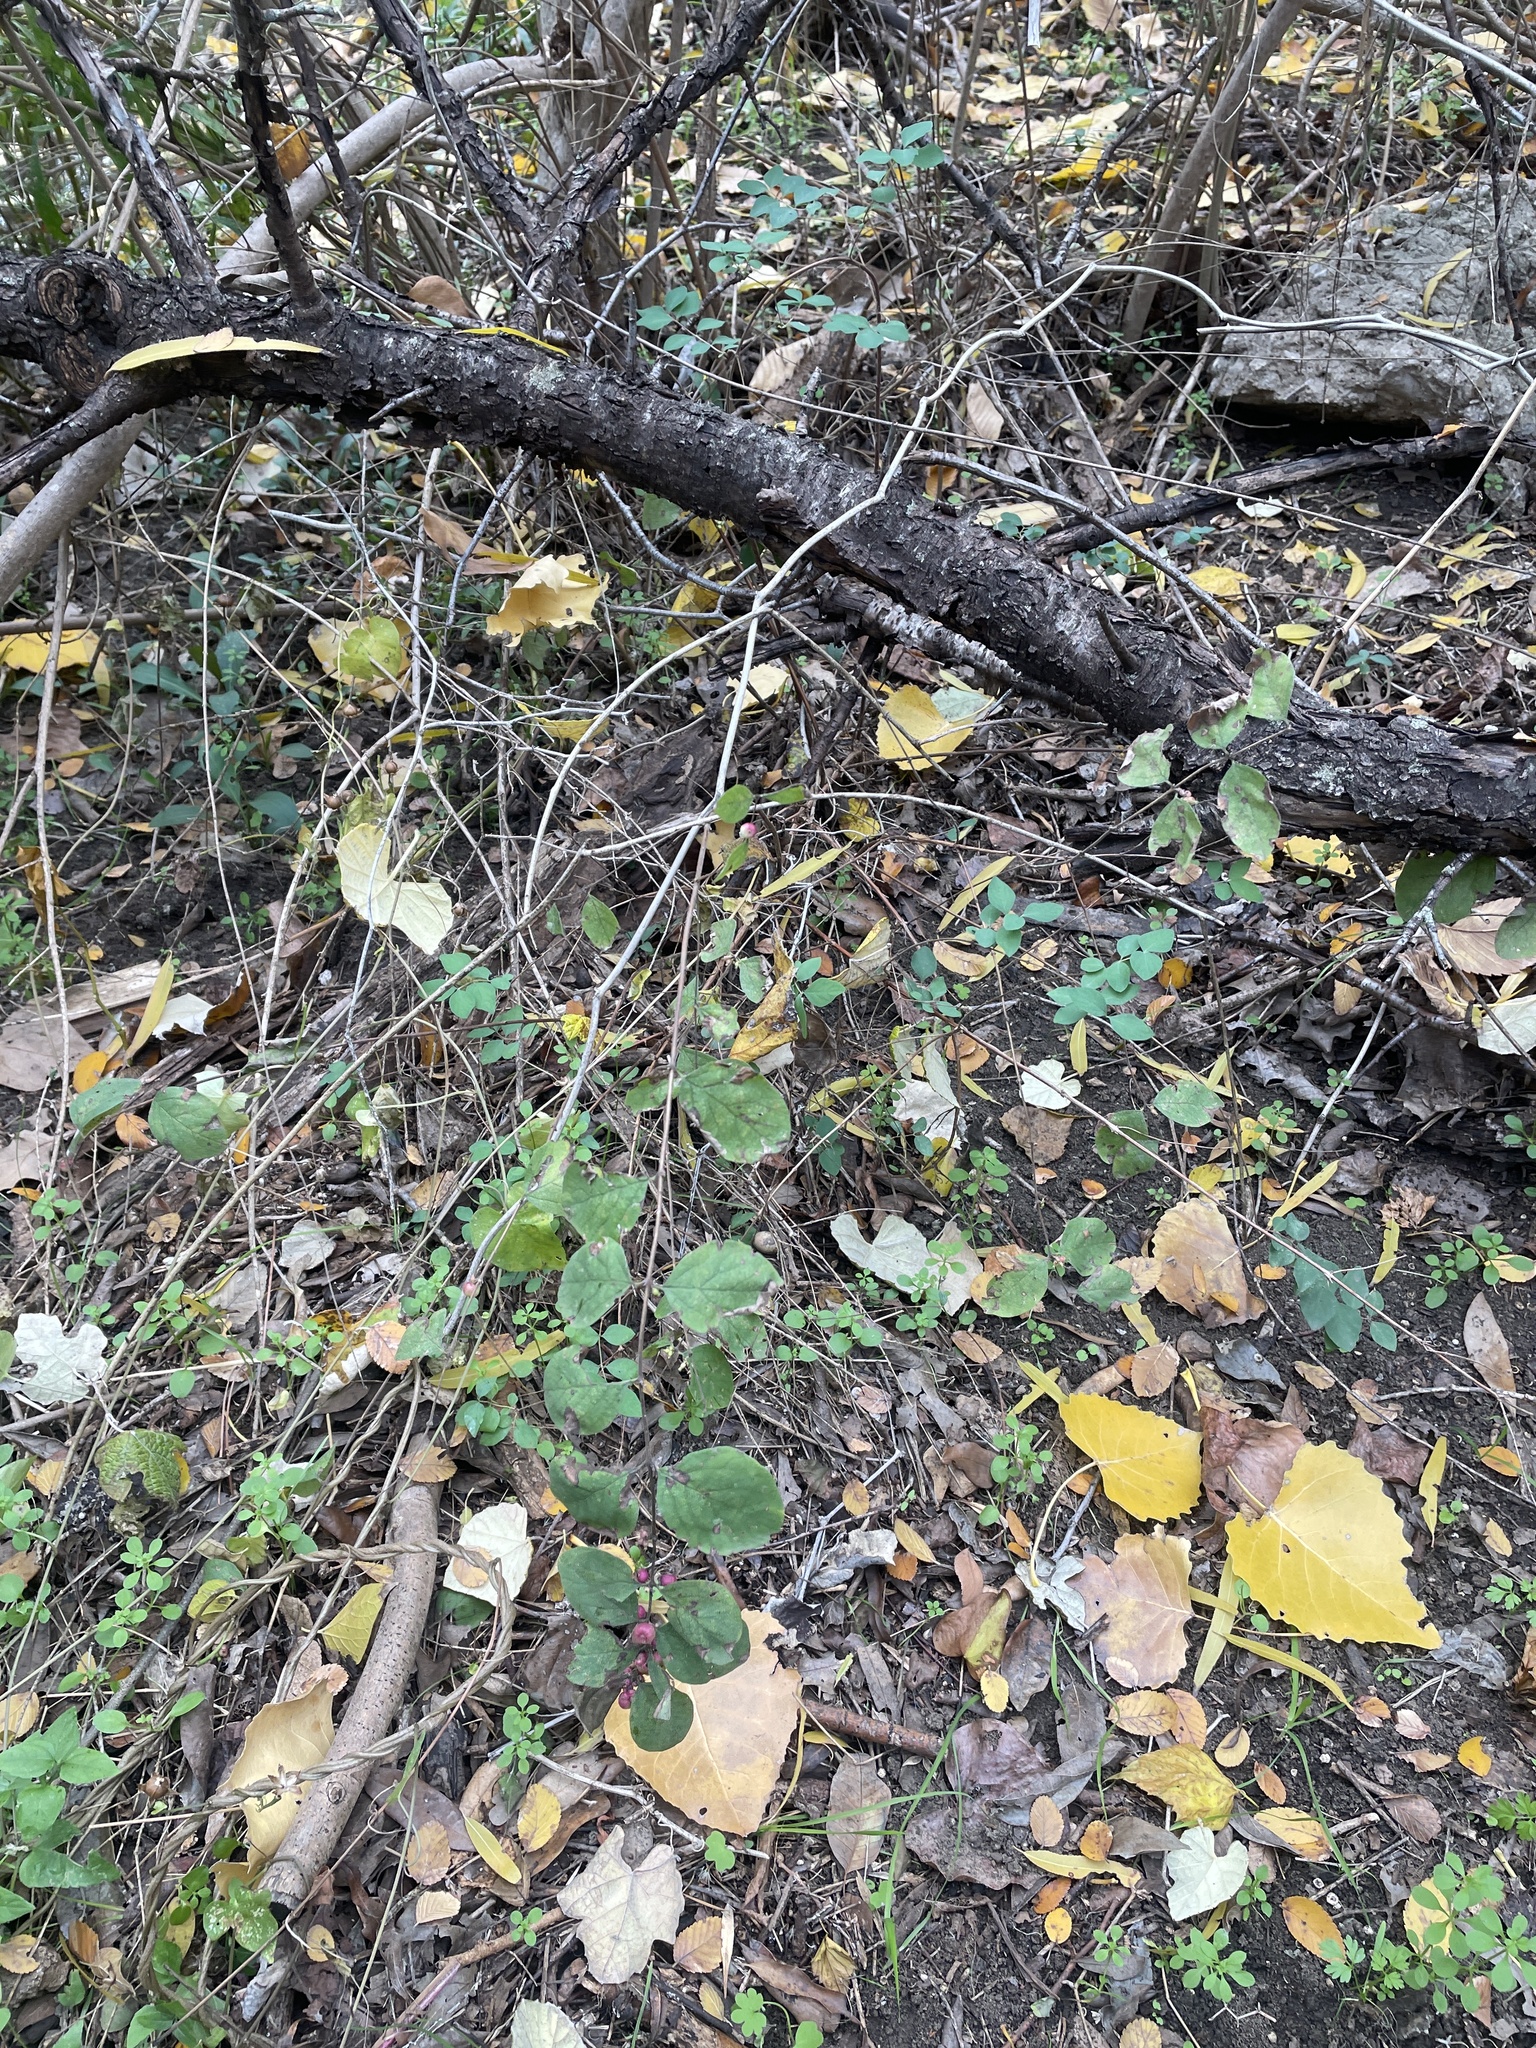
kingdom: Plantae
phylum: Tracheophyta
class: Magnoliopsida
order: Dipsacales
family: Caprifoliaceae
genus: Symphoricarpos
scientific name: Symphoricarpos orbiculatus
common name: Coralberry
